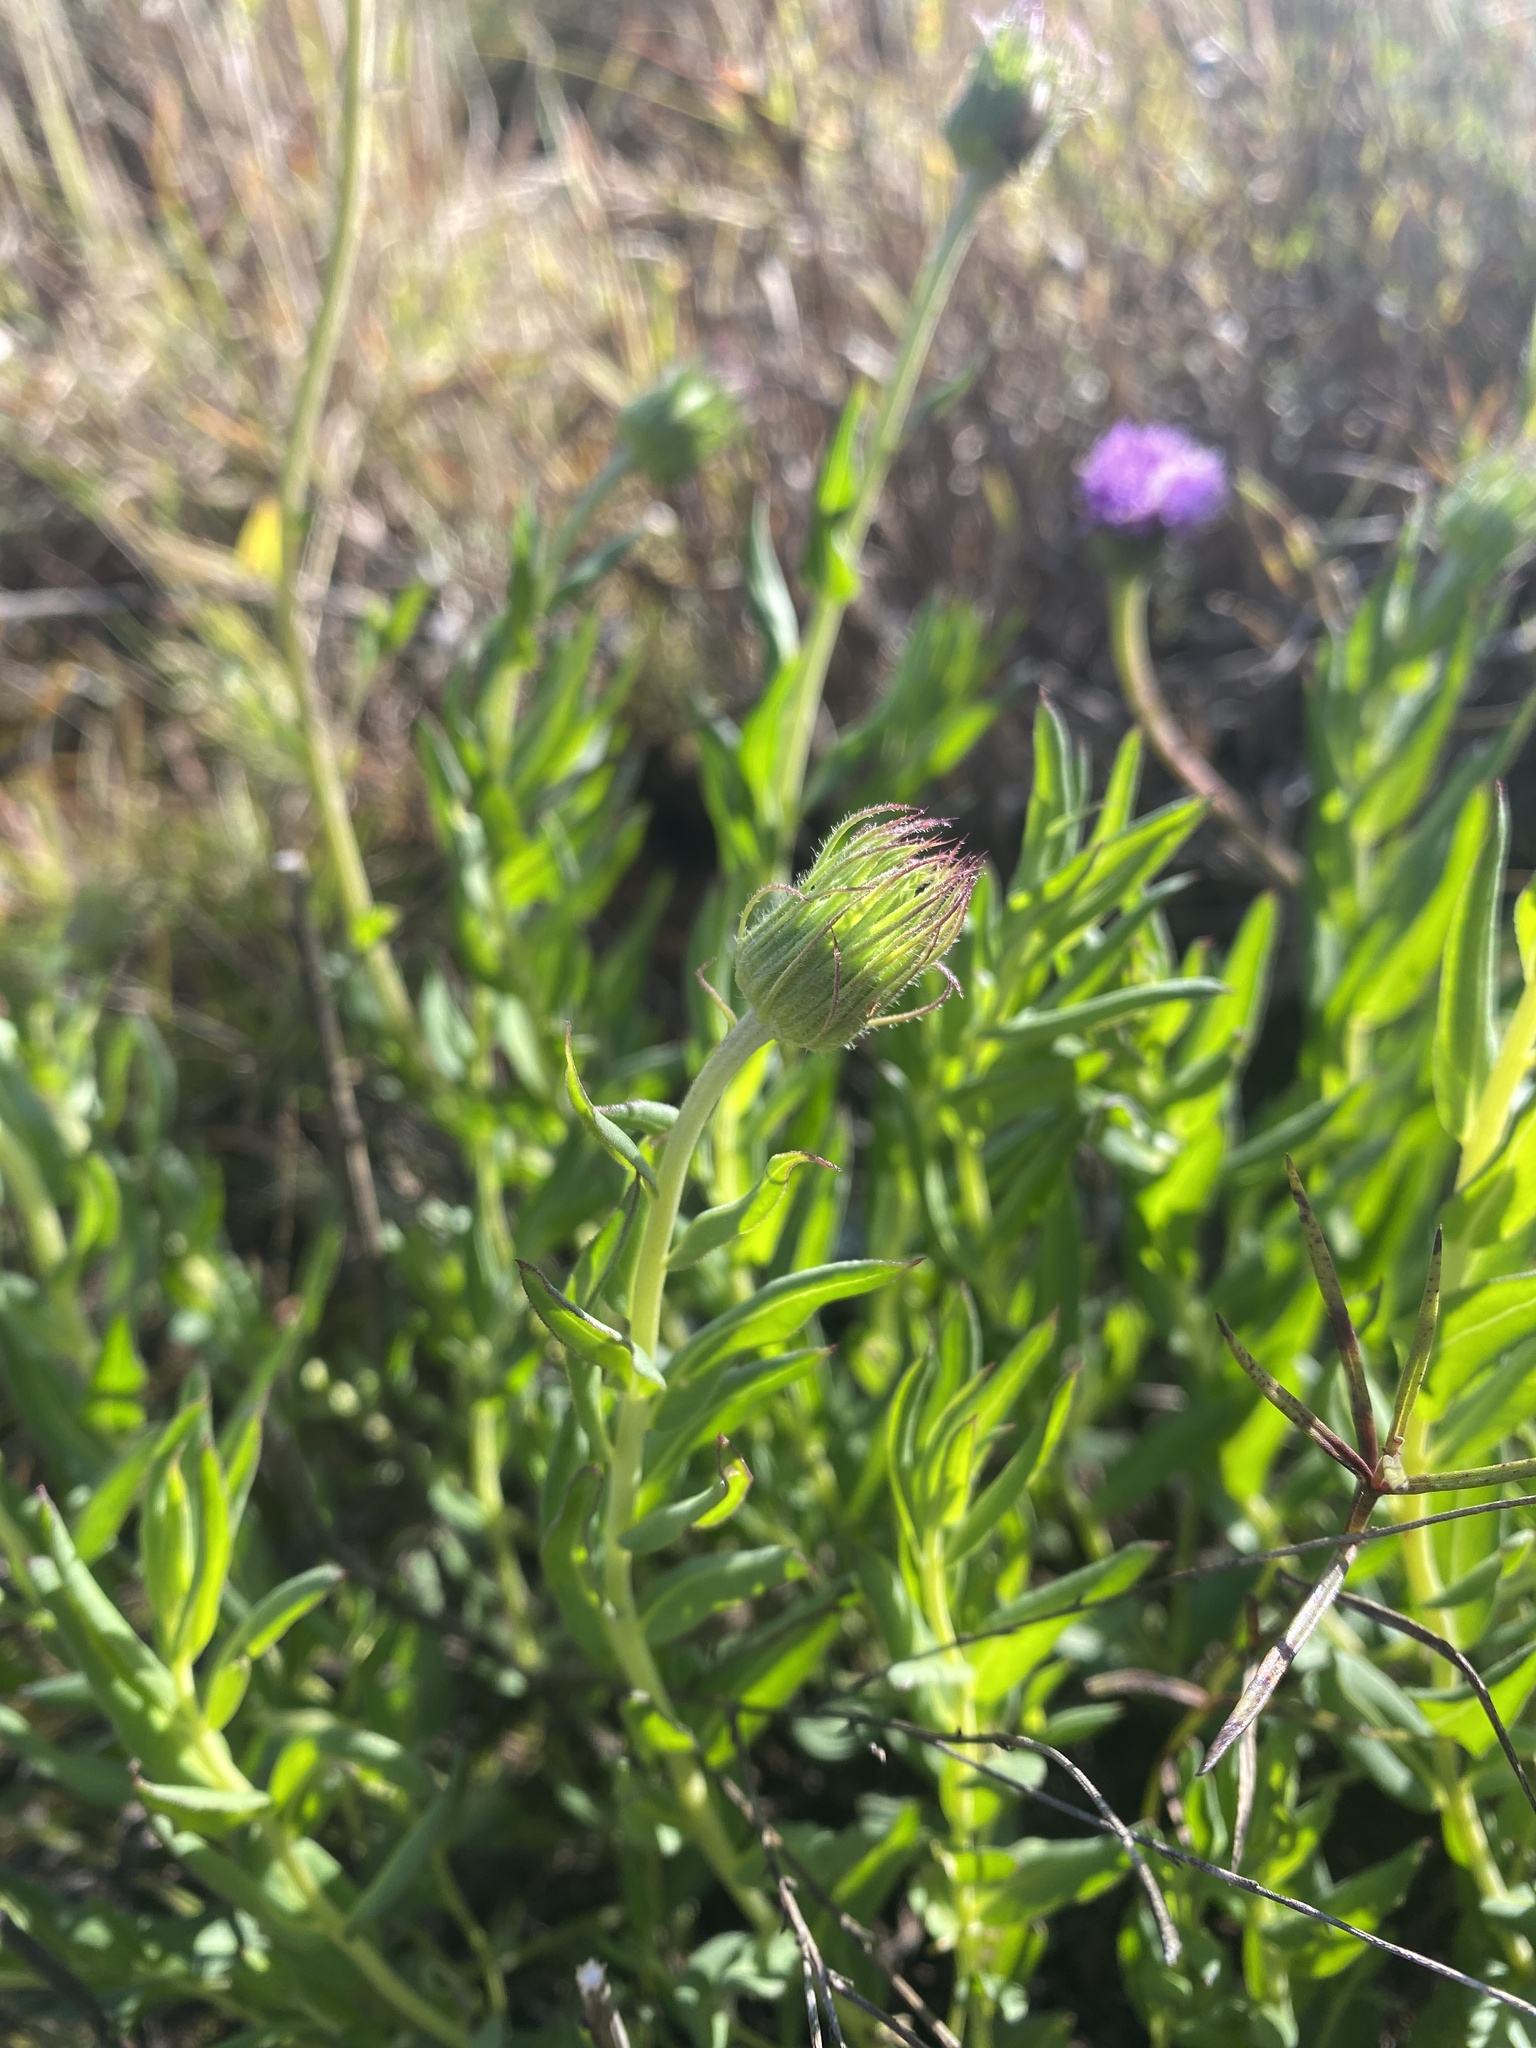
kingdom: Plantae
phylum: Tracheophyta
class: Magnoliopsida
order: Asterales
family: Asteraceae
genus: Pseudopegolettia
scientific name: Pseudopegolettia tenella
